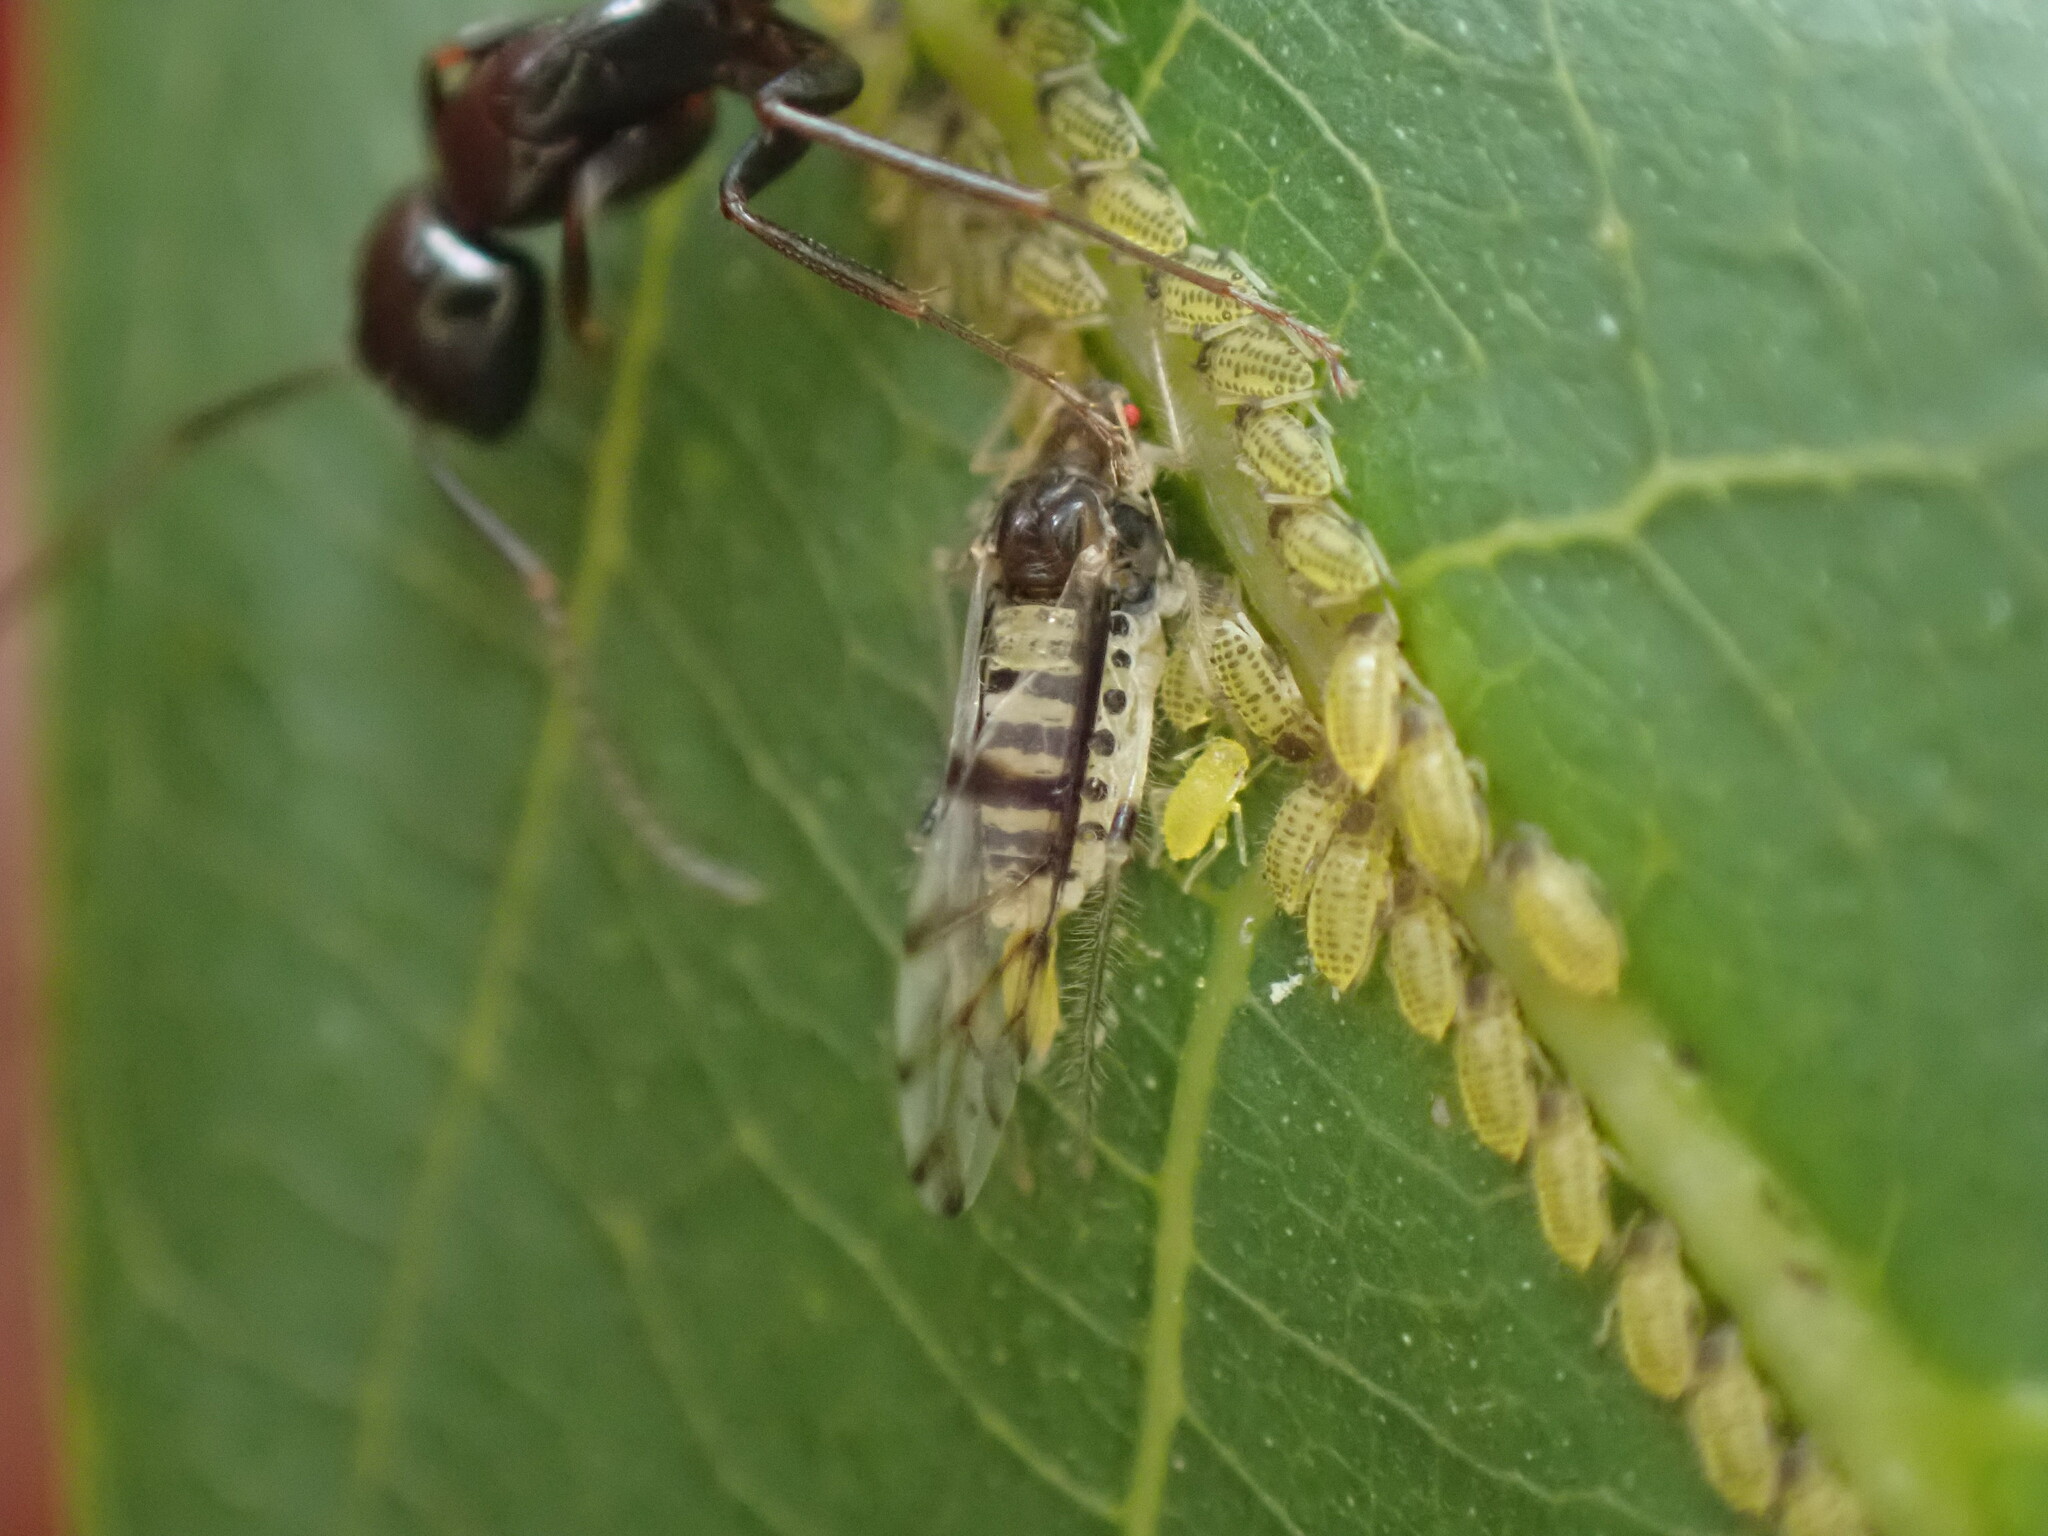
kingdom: Animalia
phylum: Arthropoda
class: Insecta
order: Hemiptera
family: Aphididae
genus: Panaphis
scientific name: Panaphis juglandis
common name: Large walnut aphid
